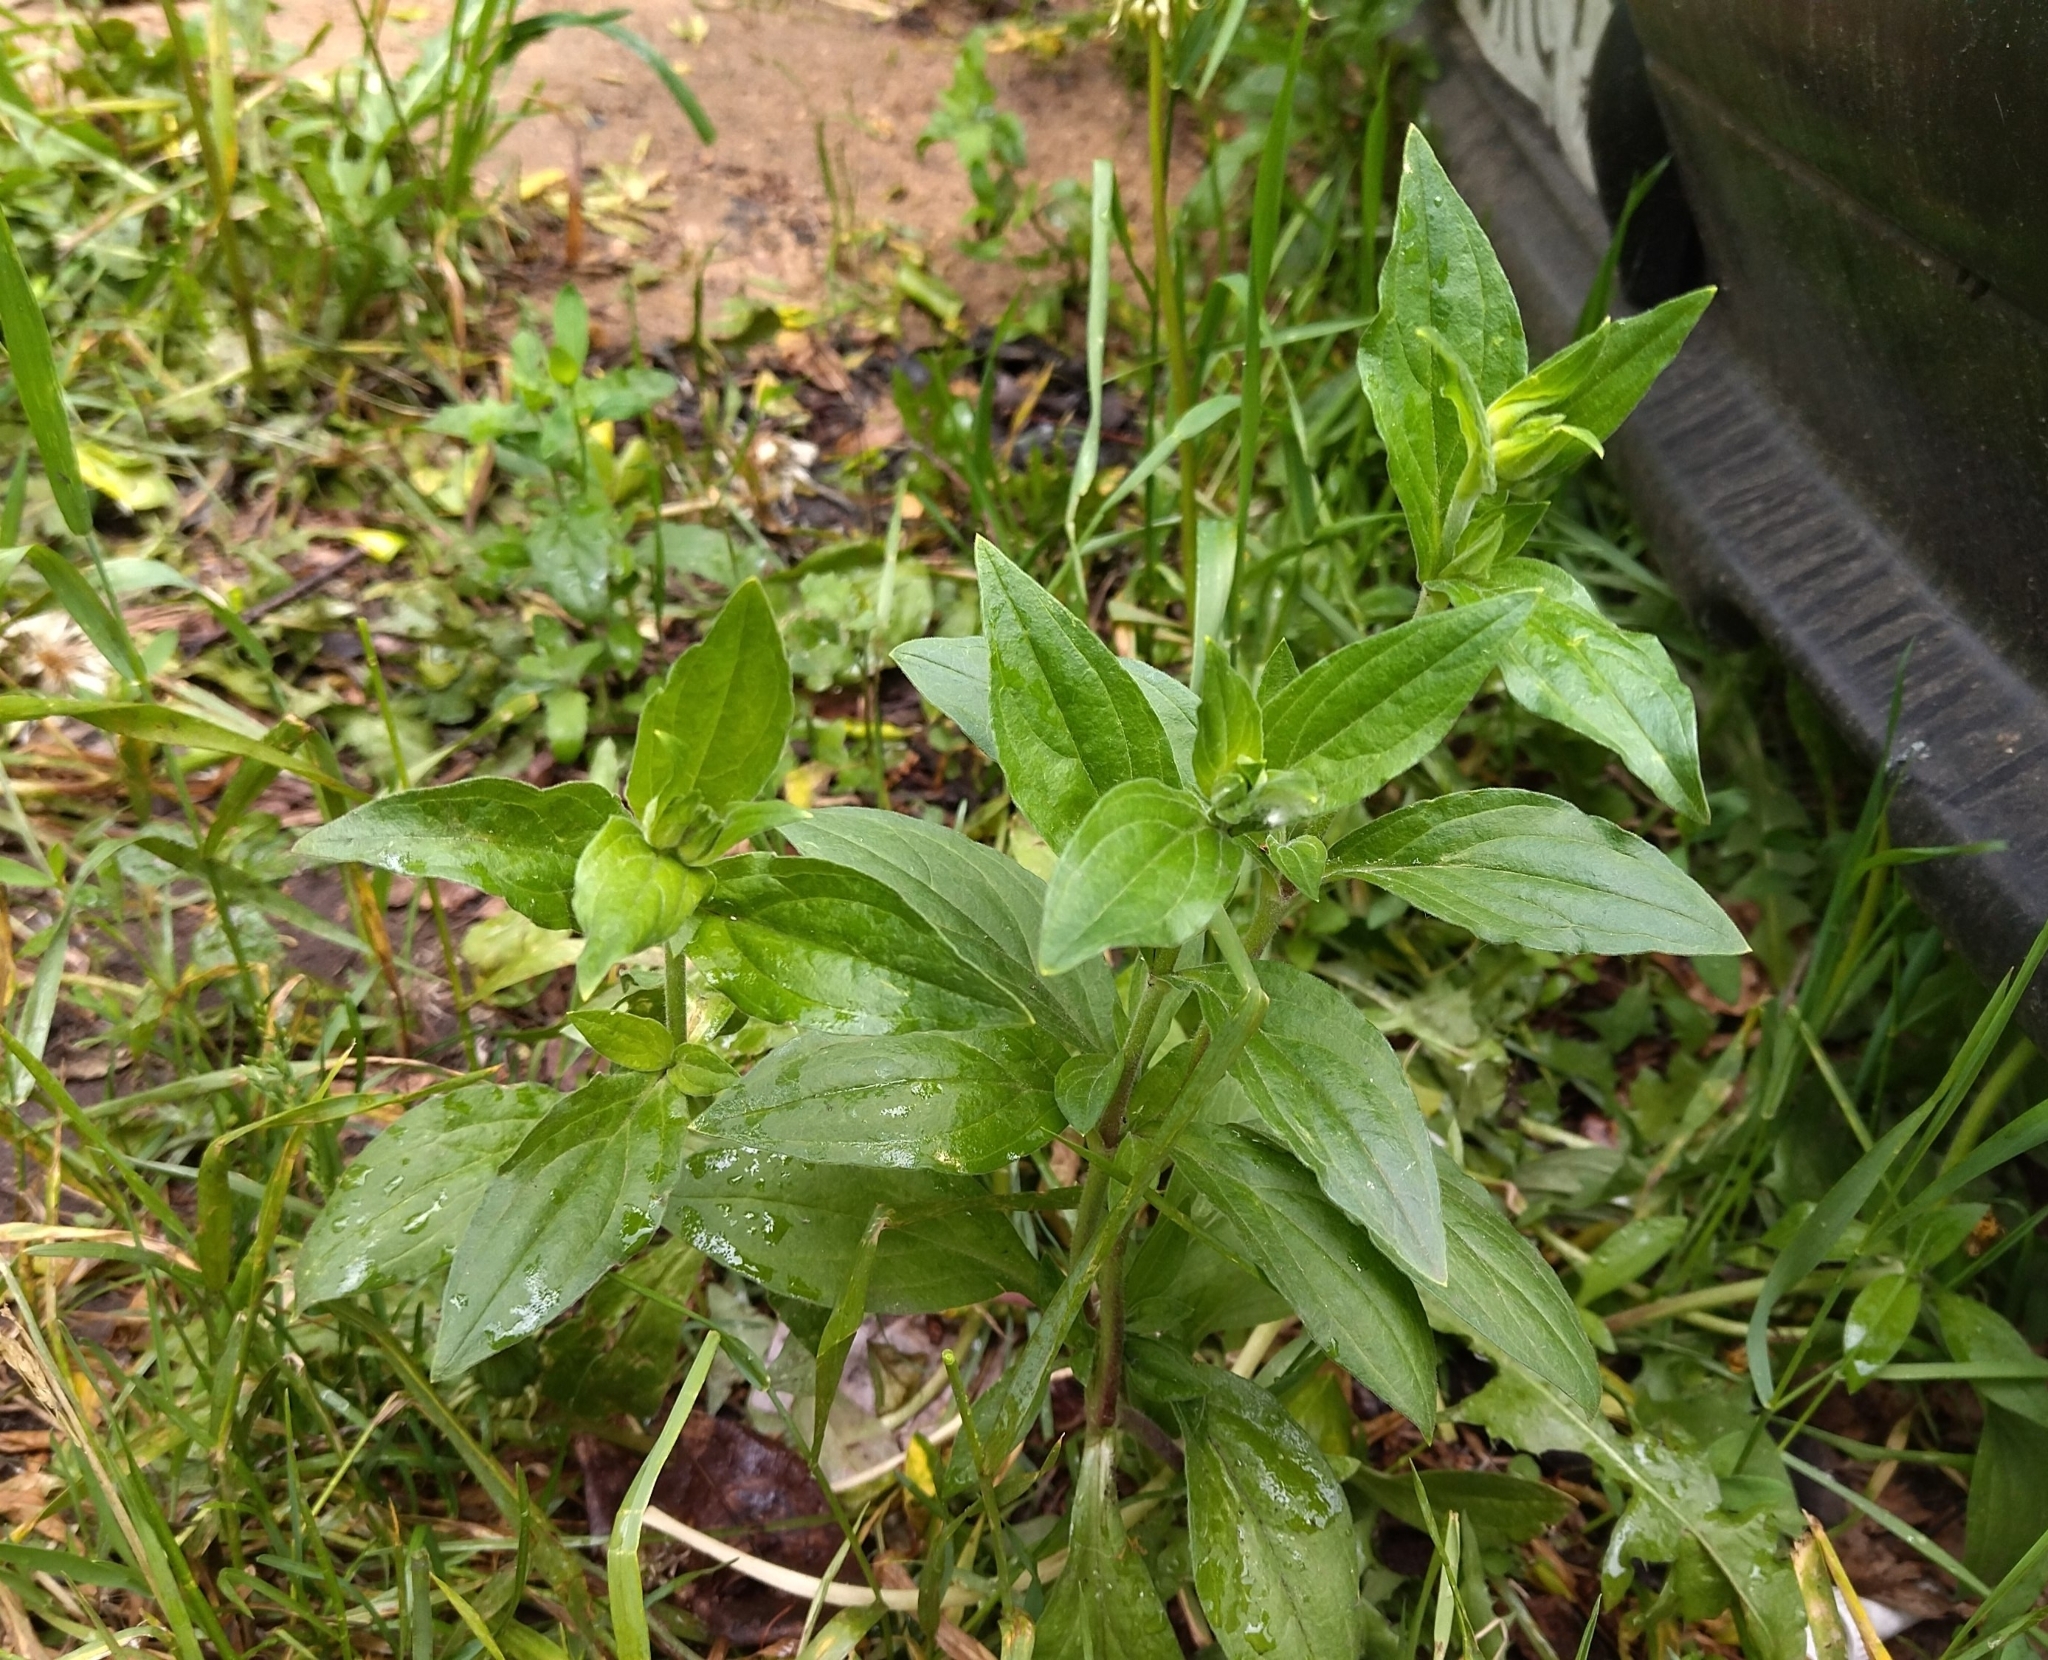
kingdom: Plantae
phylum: Tracheophyta
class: Magnoliopsida
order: Caryophyllales
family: Caryophyllaceae
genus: Silene
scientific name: Silene latifolia
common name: White campion
